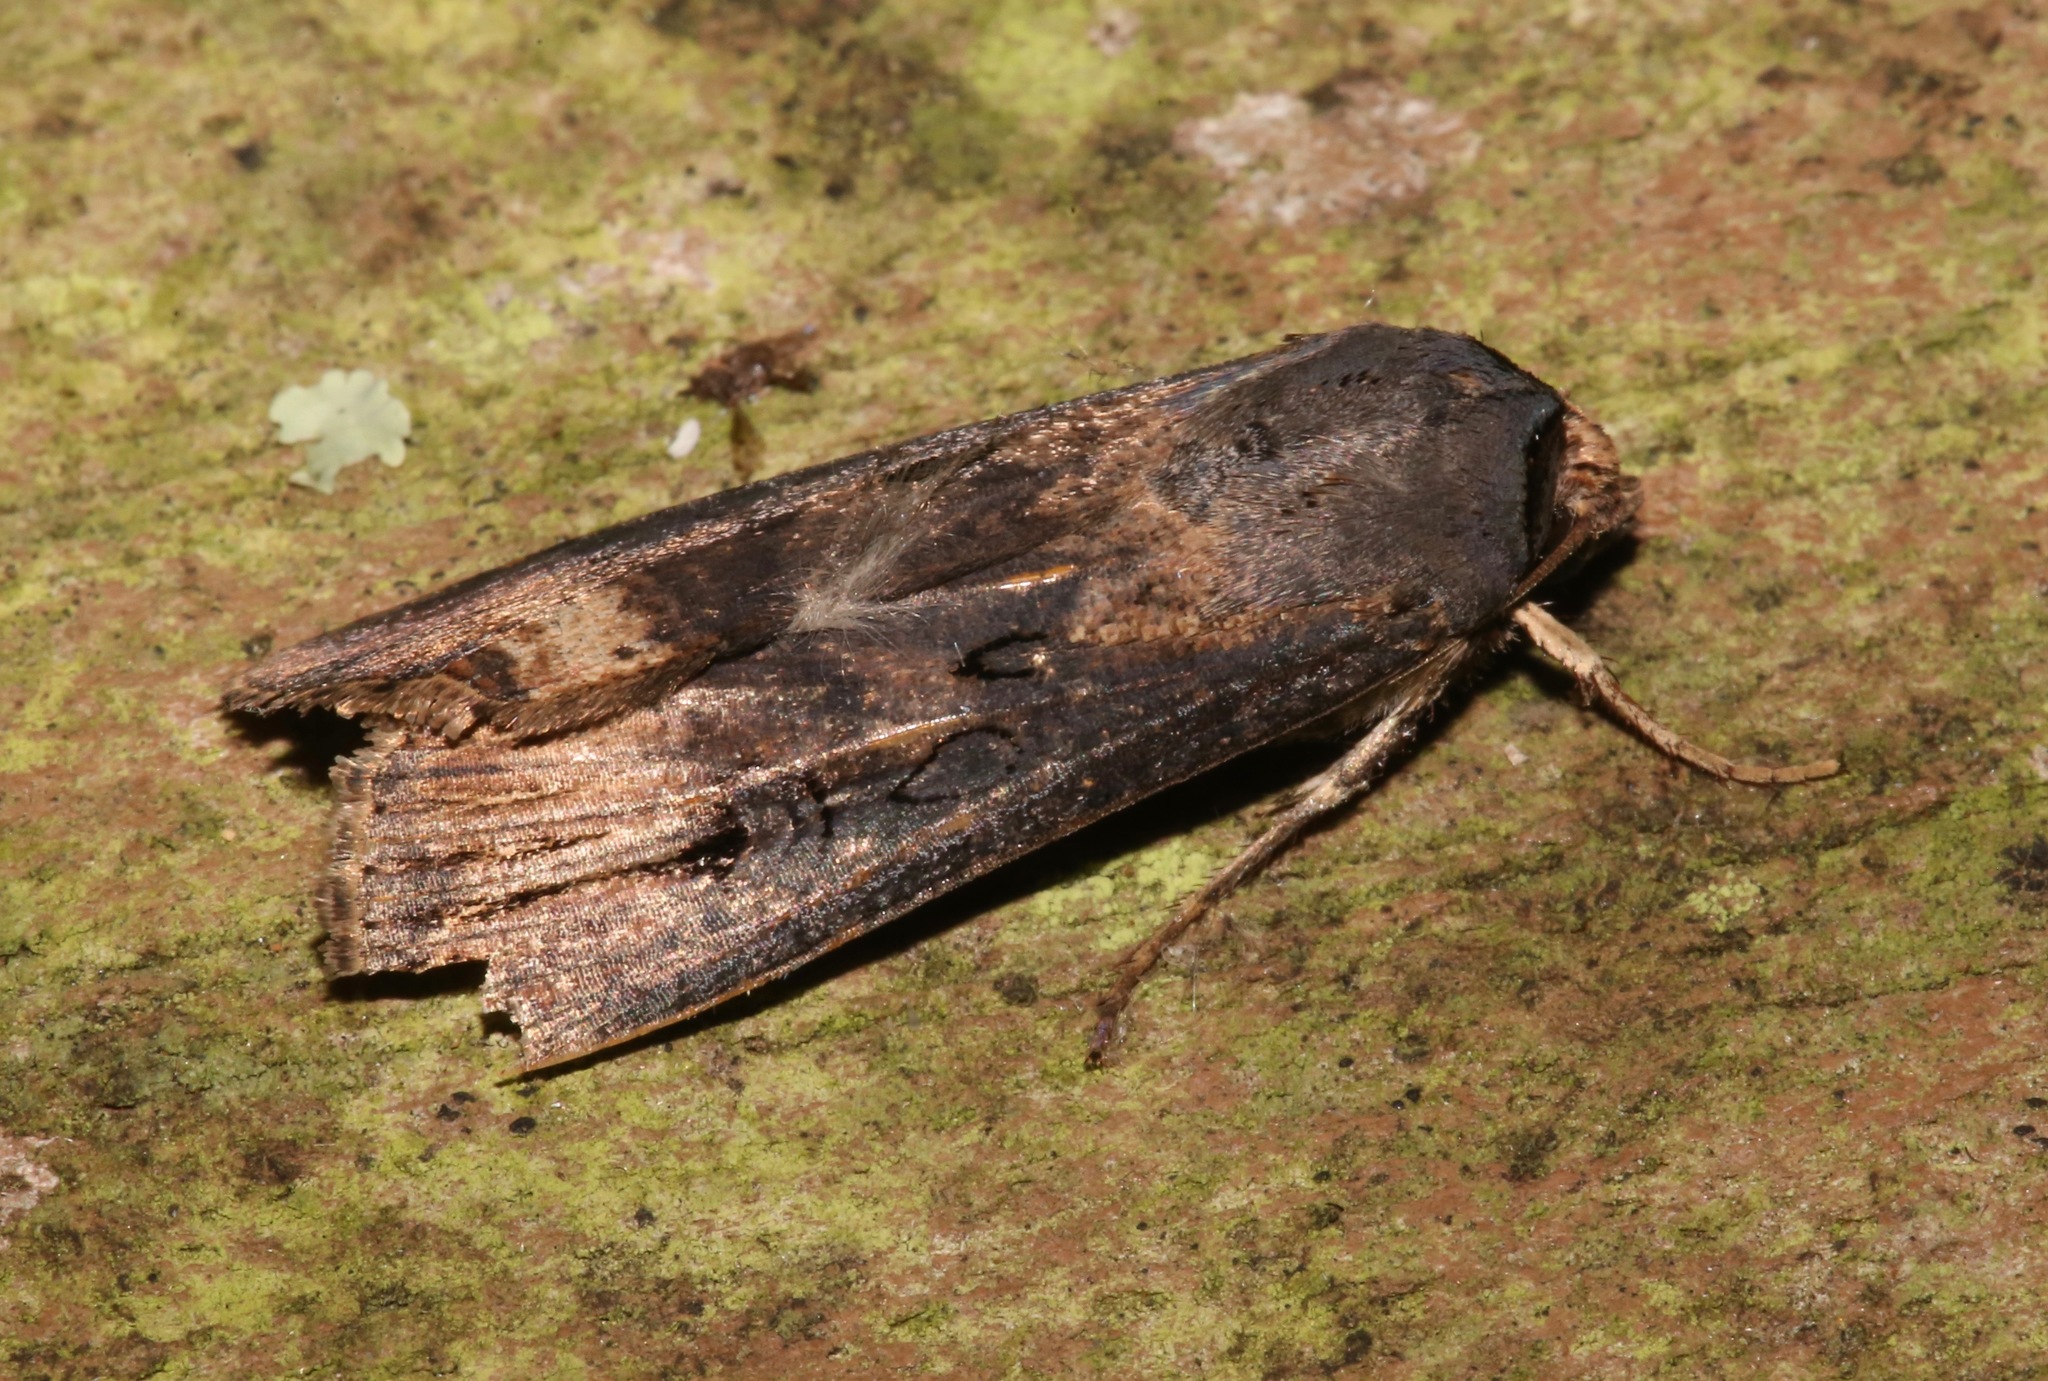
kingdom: Animalia
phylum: Arthropoda
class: Insecta
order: Lepidoptera
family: Noctuidae
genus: Agrotis
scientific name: Agrotis ipsilon
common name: Dark sword-grass
